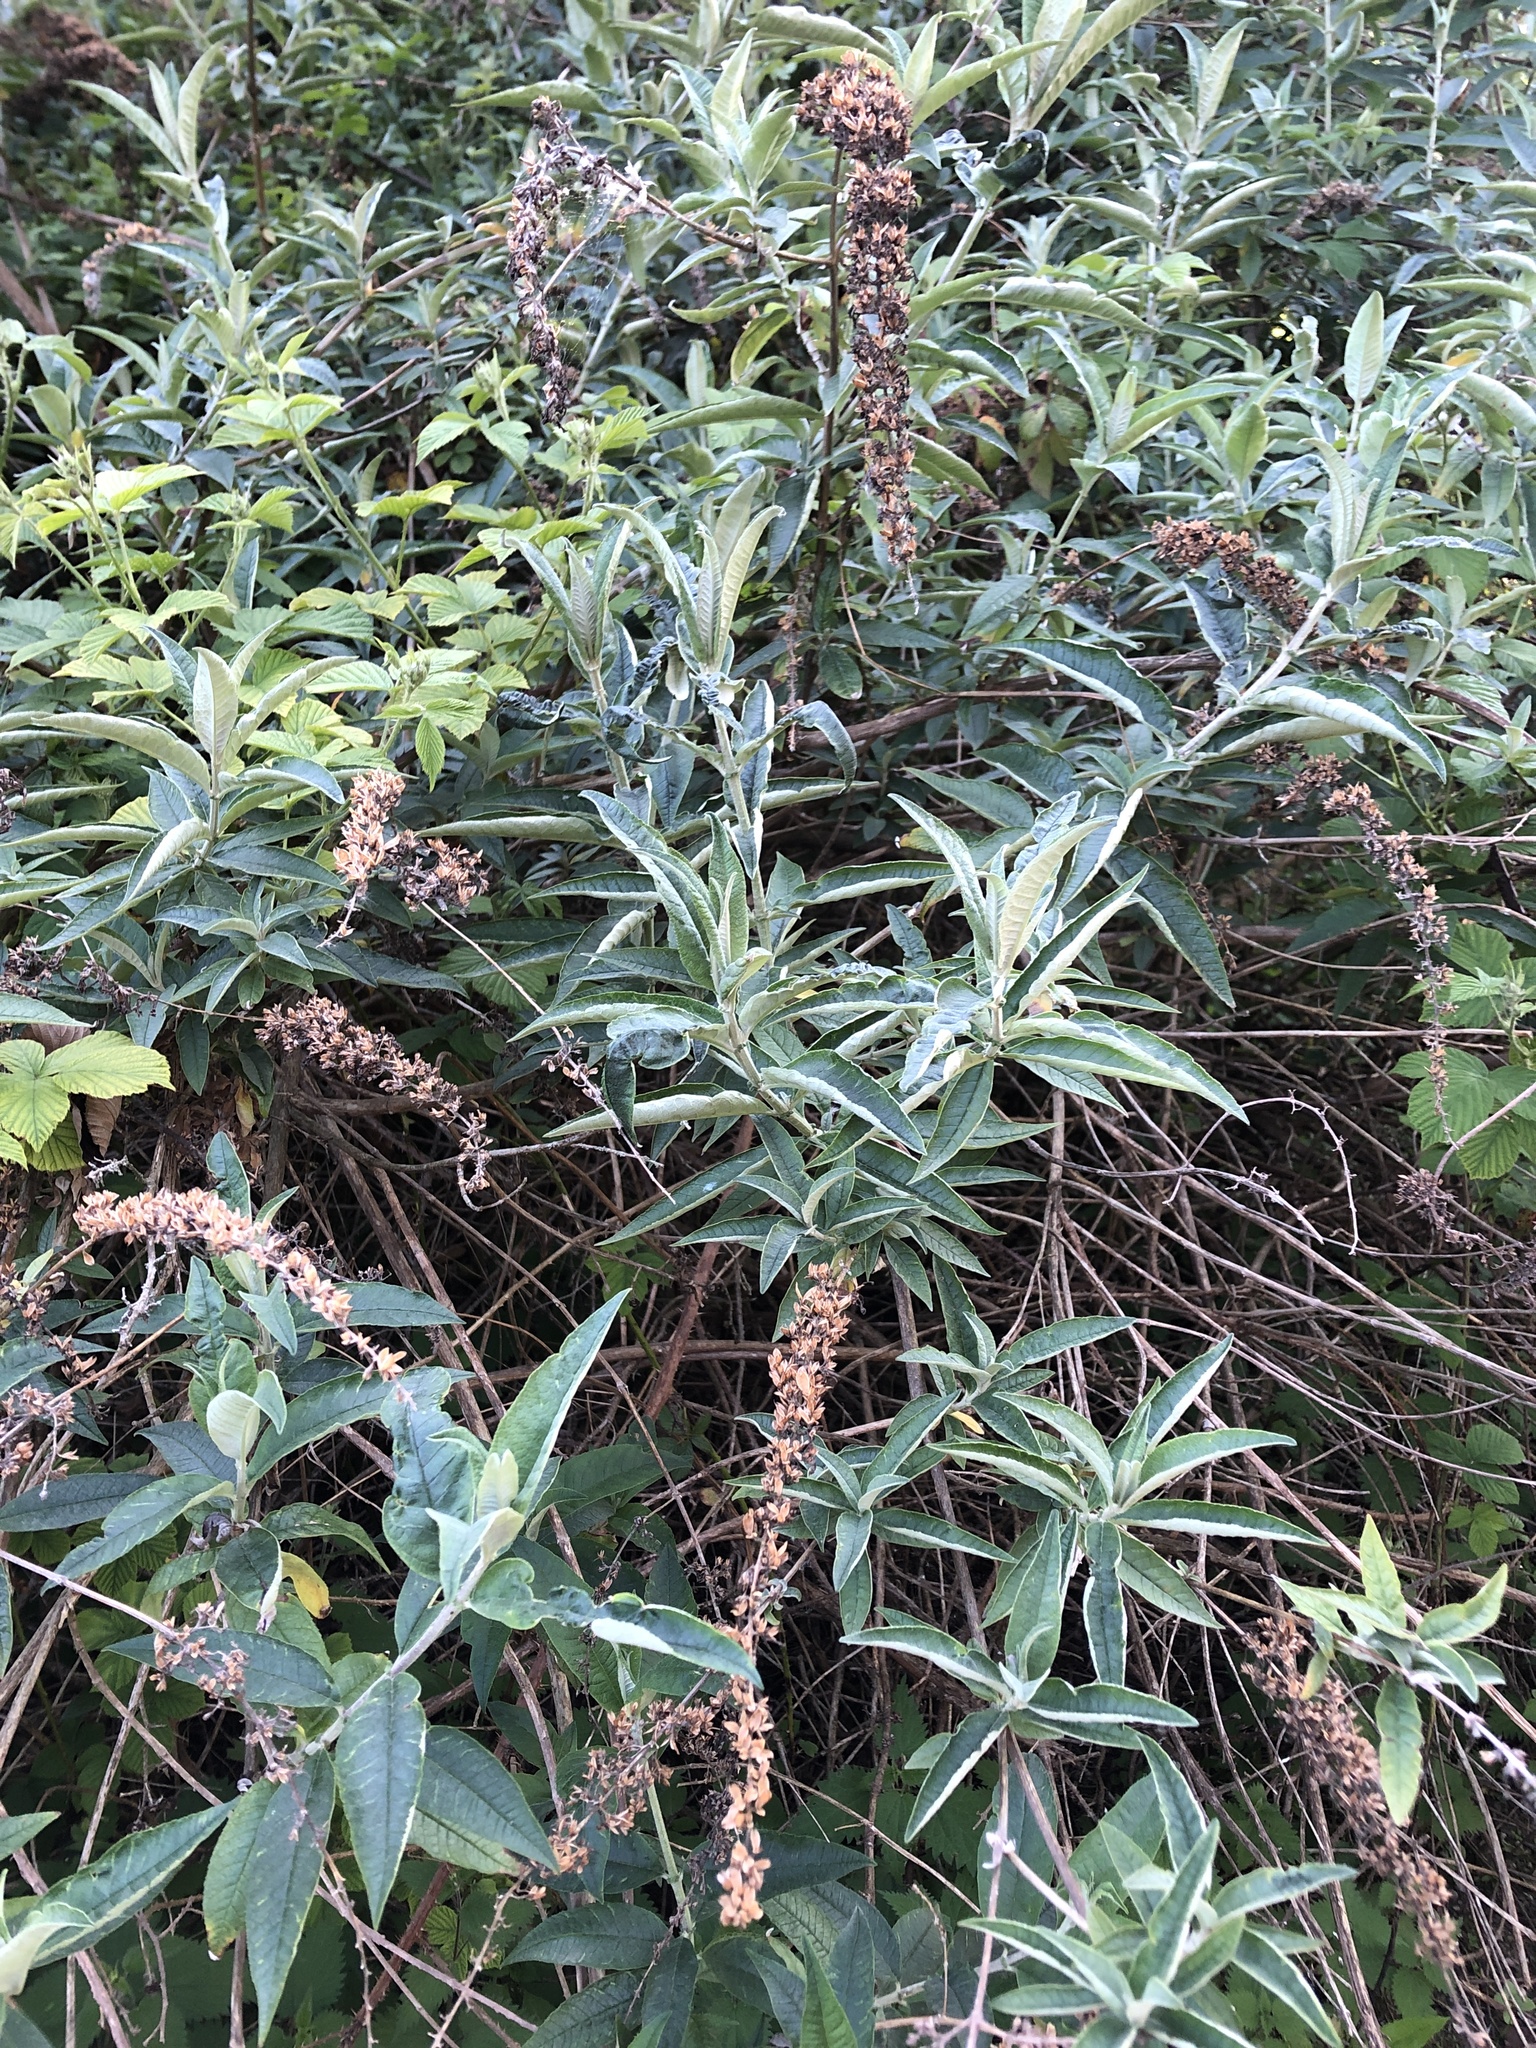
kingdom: Plantae
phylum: Tracheophyta
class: Magnoliopsida
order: Lamiales
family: Scrophulariaceae
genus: Buddleja
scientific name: Buddleja davidii
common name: Butterfly-bush
